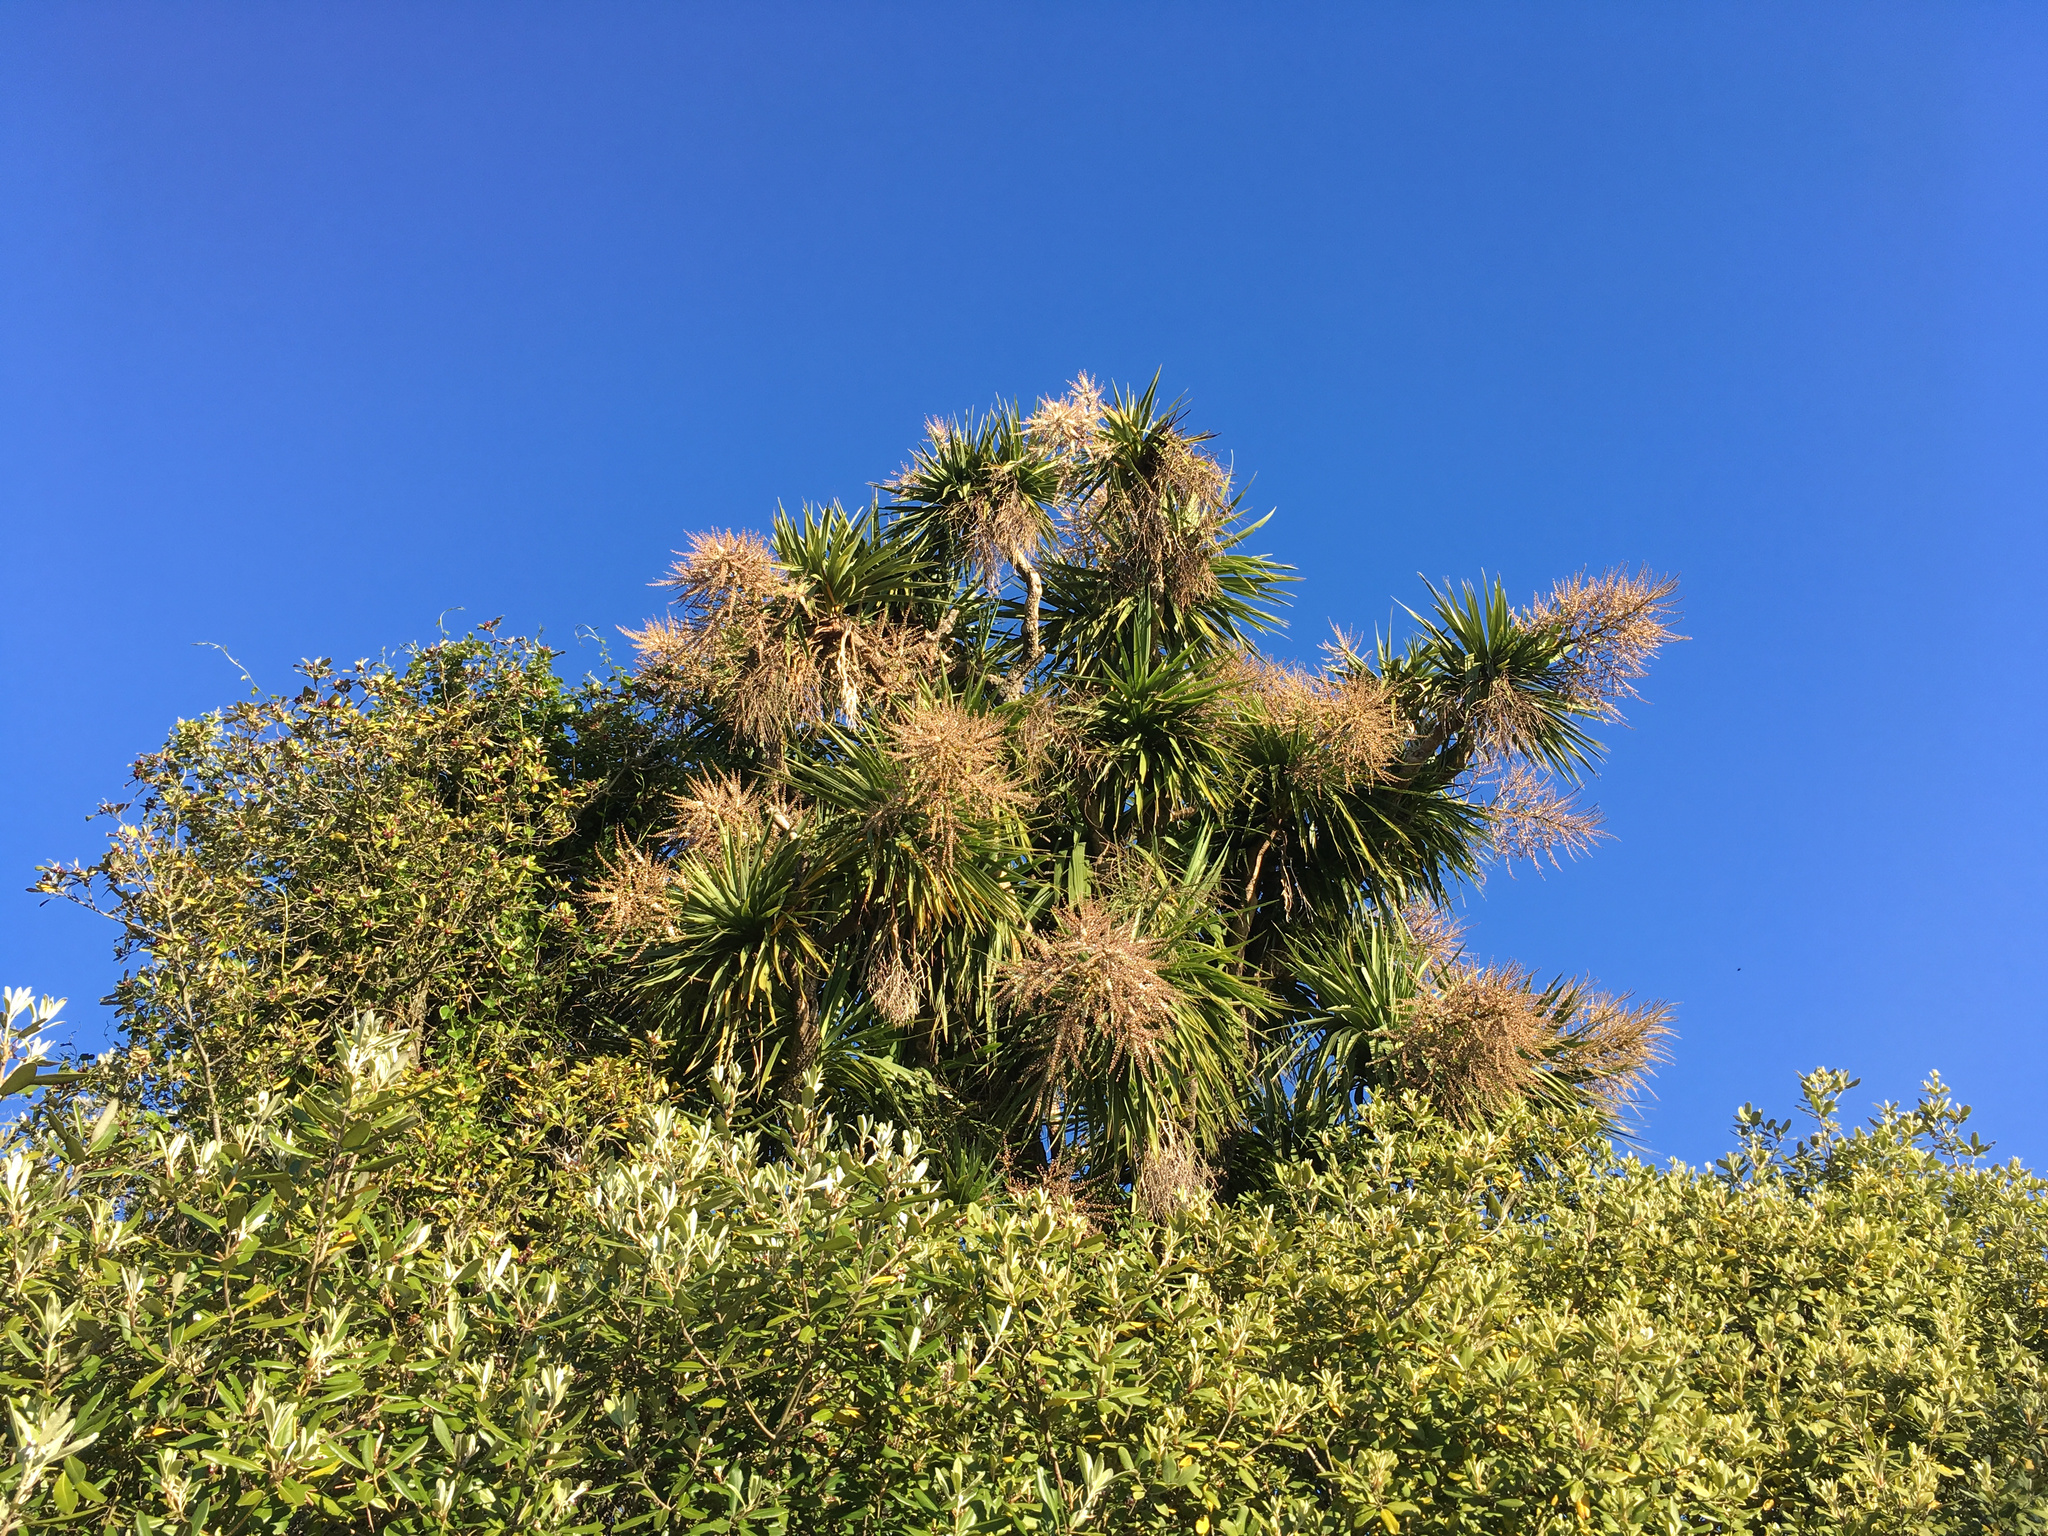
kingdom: Plantae
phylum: Tracheophyta
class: Liliopsida
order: Asparagales
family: Asparagaceae
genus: Cordyline
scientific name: Cordyline australis
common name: Cabbage-palm
